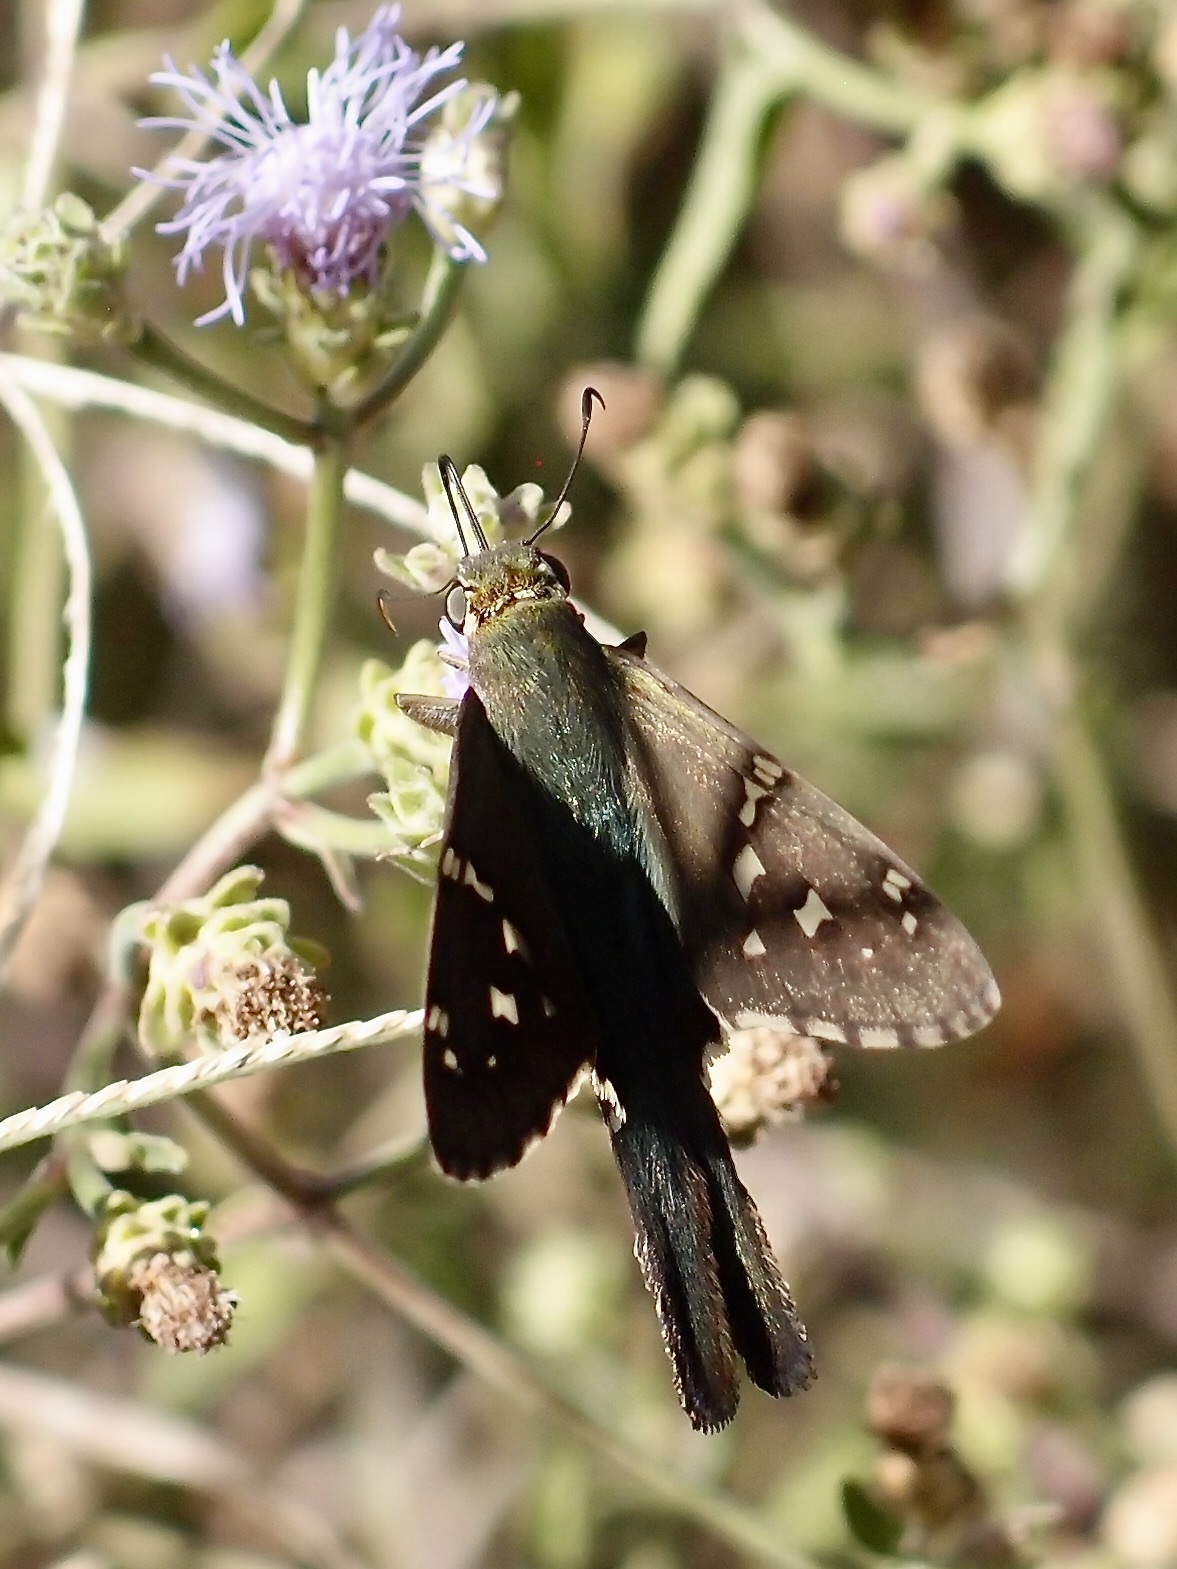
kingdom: Animalia
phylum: Arthropoda
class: Insecta
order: Lepidoptera
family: Hesperiidae
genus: Urbanus
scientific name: Urbanus proteus
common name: Long-tailed skipper
